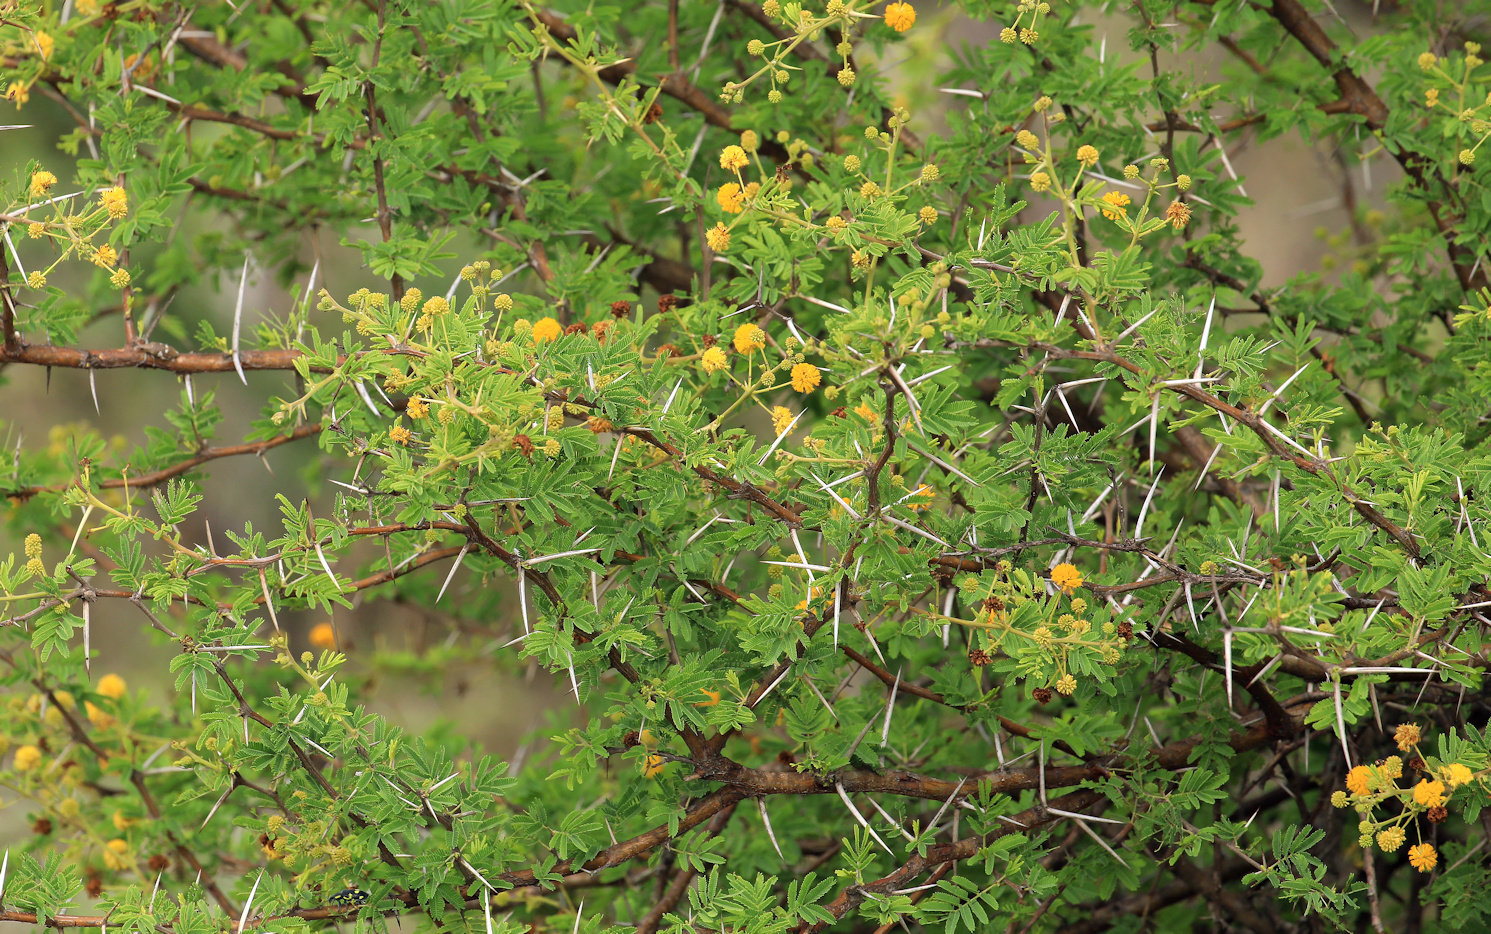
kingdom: Plantae
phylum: Tracheophyta
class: Magnoliopsida
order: Fabales
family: Fabaceae
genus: Vachellia
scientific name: Vachellia karroo
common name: Sweet thorn
